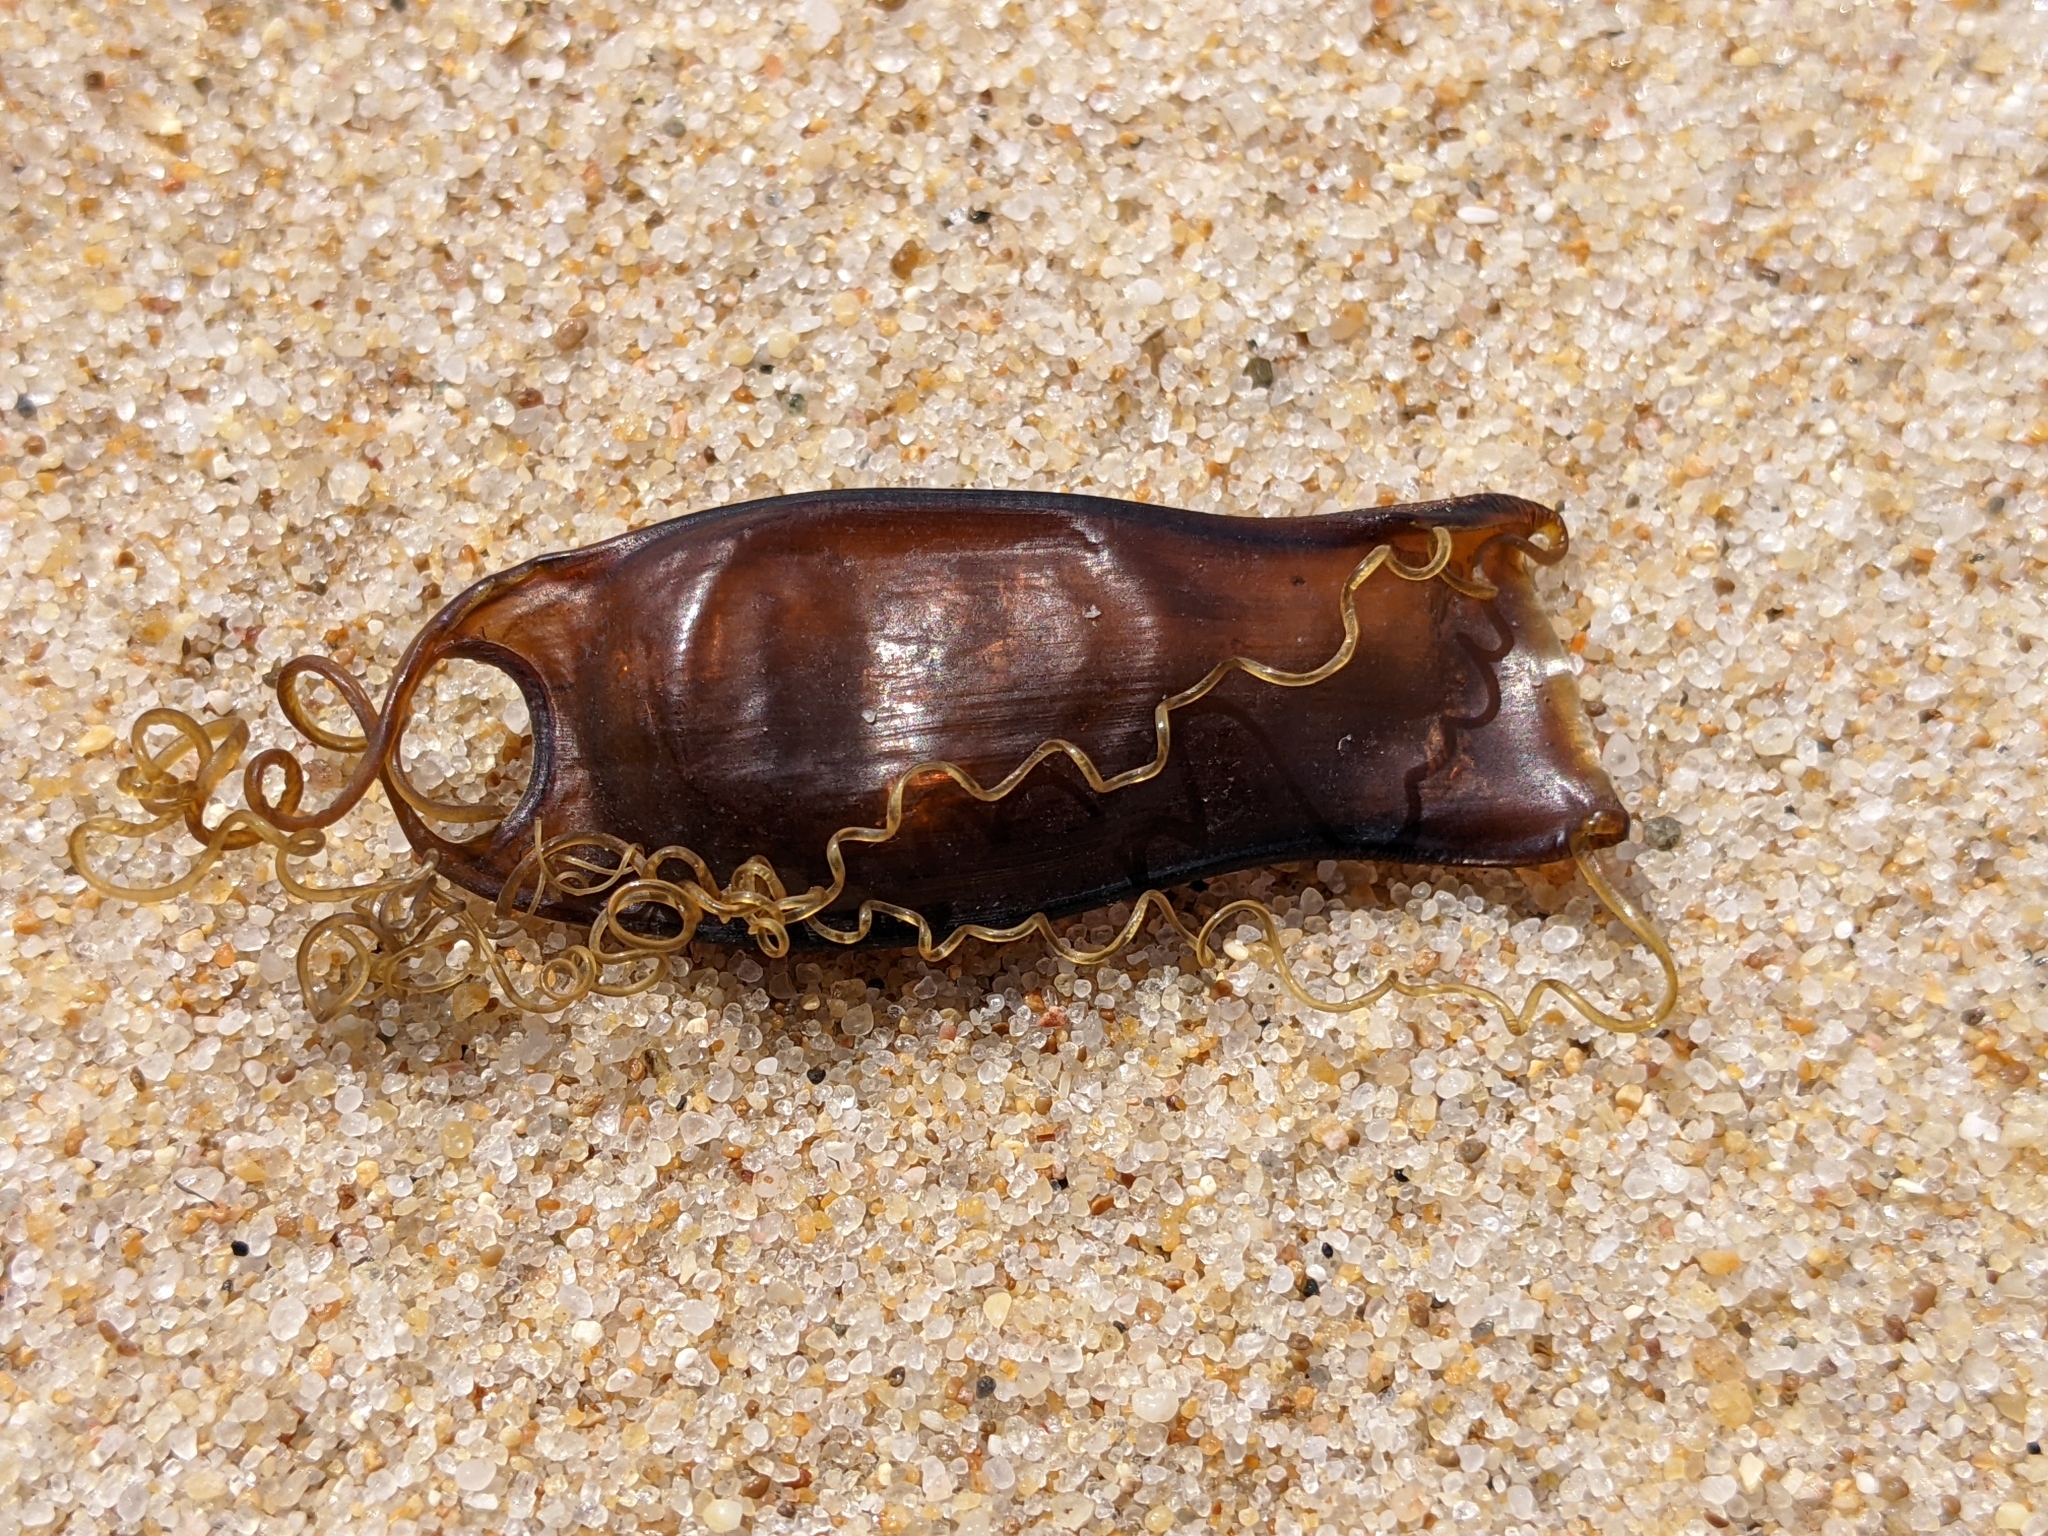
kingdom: Animalia
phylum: Chordata
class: Elasmobranchii
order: Carcharhiniformes
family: Scyliorhinidae
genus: Scyliorhinus
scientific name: Scyliorhinus canicula
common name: Lesser spotted dogfish
